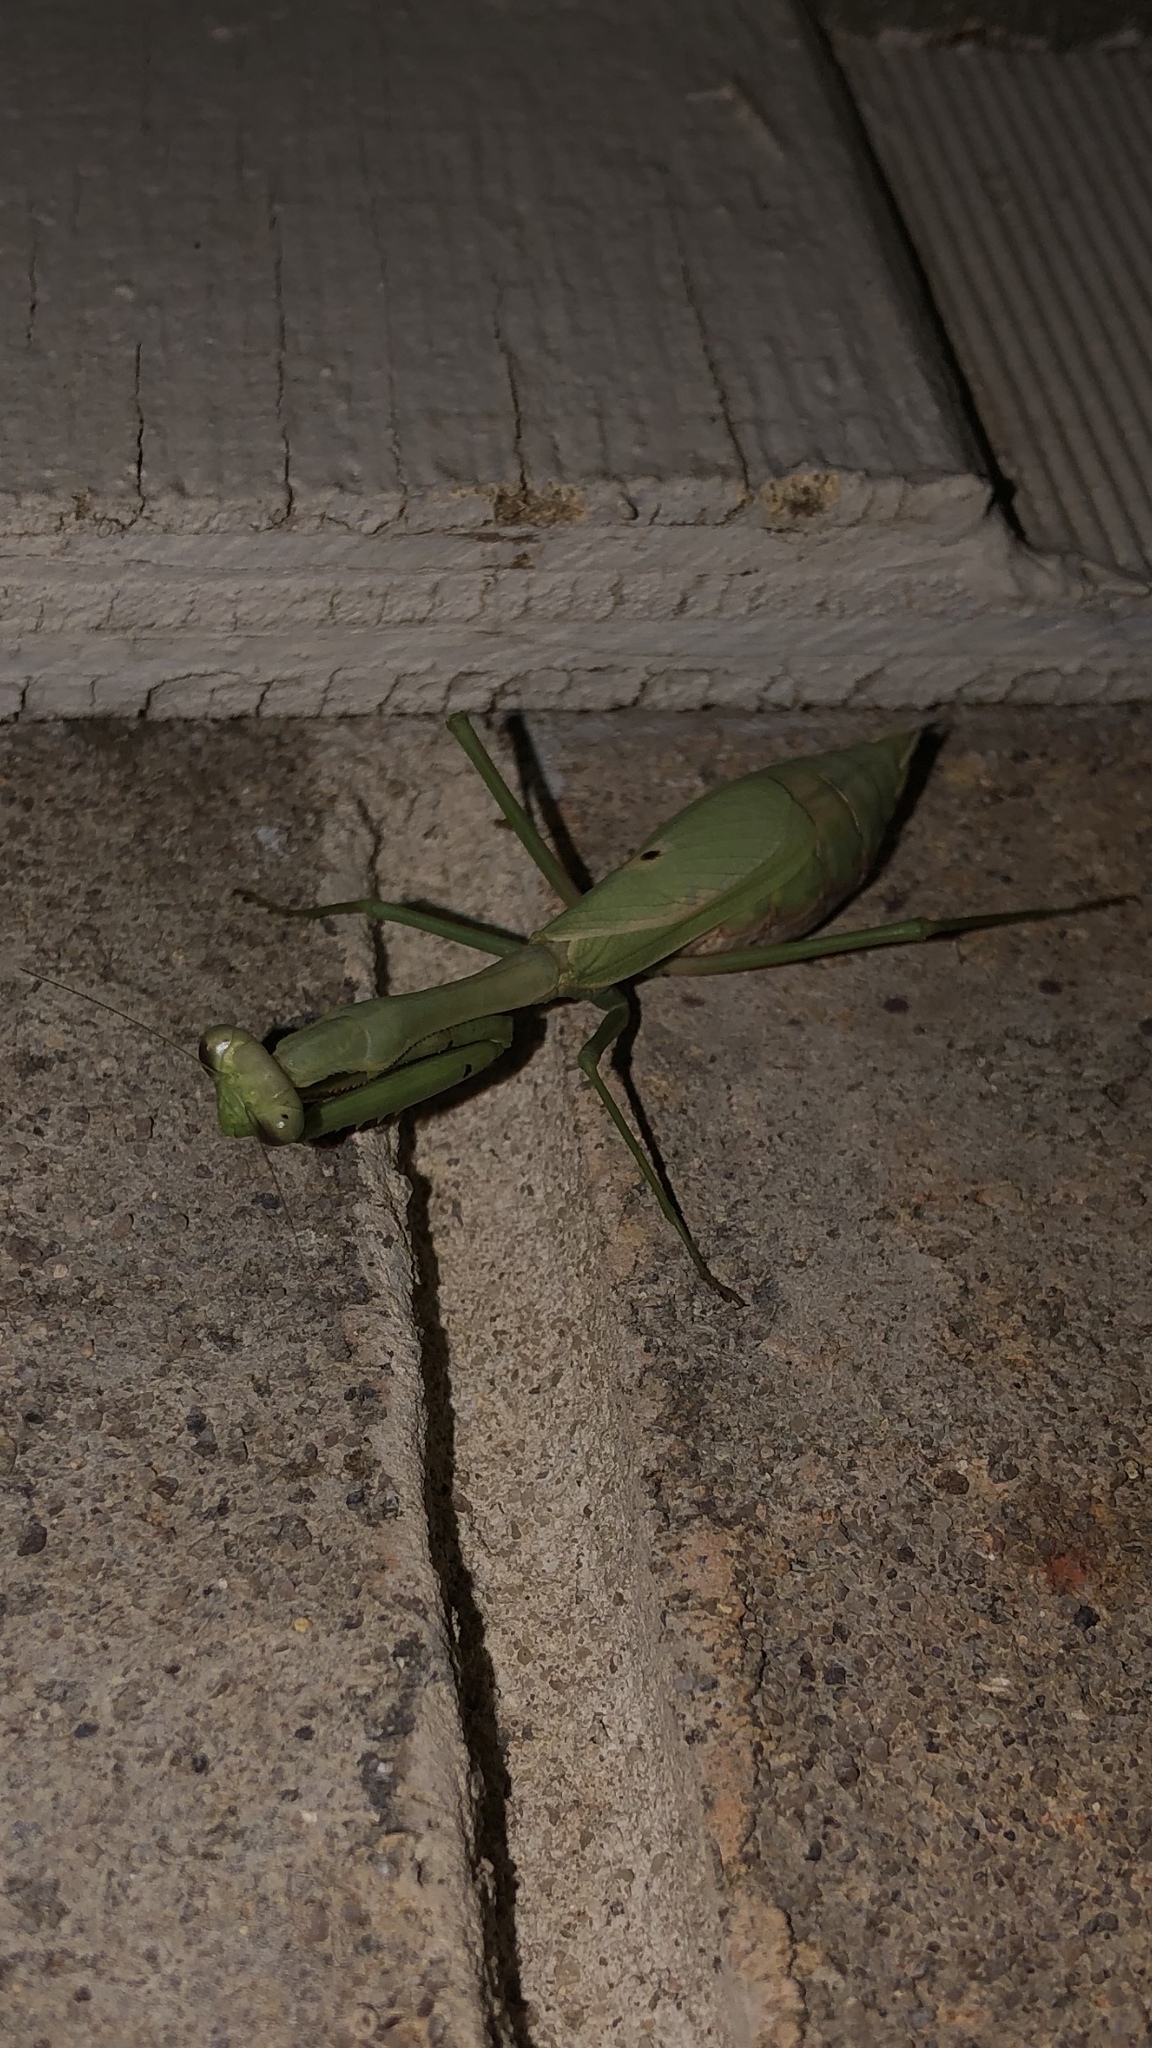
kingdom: Animalia
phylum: Arthropoda
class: Insecta
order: Mantodea
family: Mantidae
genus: Stagmomantis
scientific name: Stagmomantis carolina
